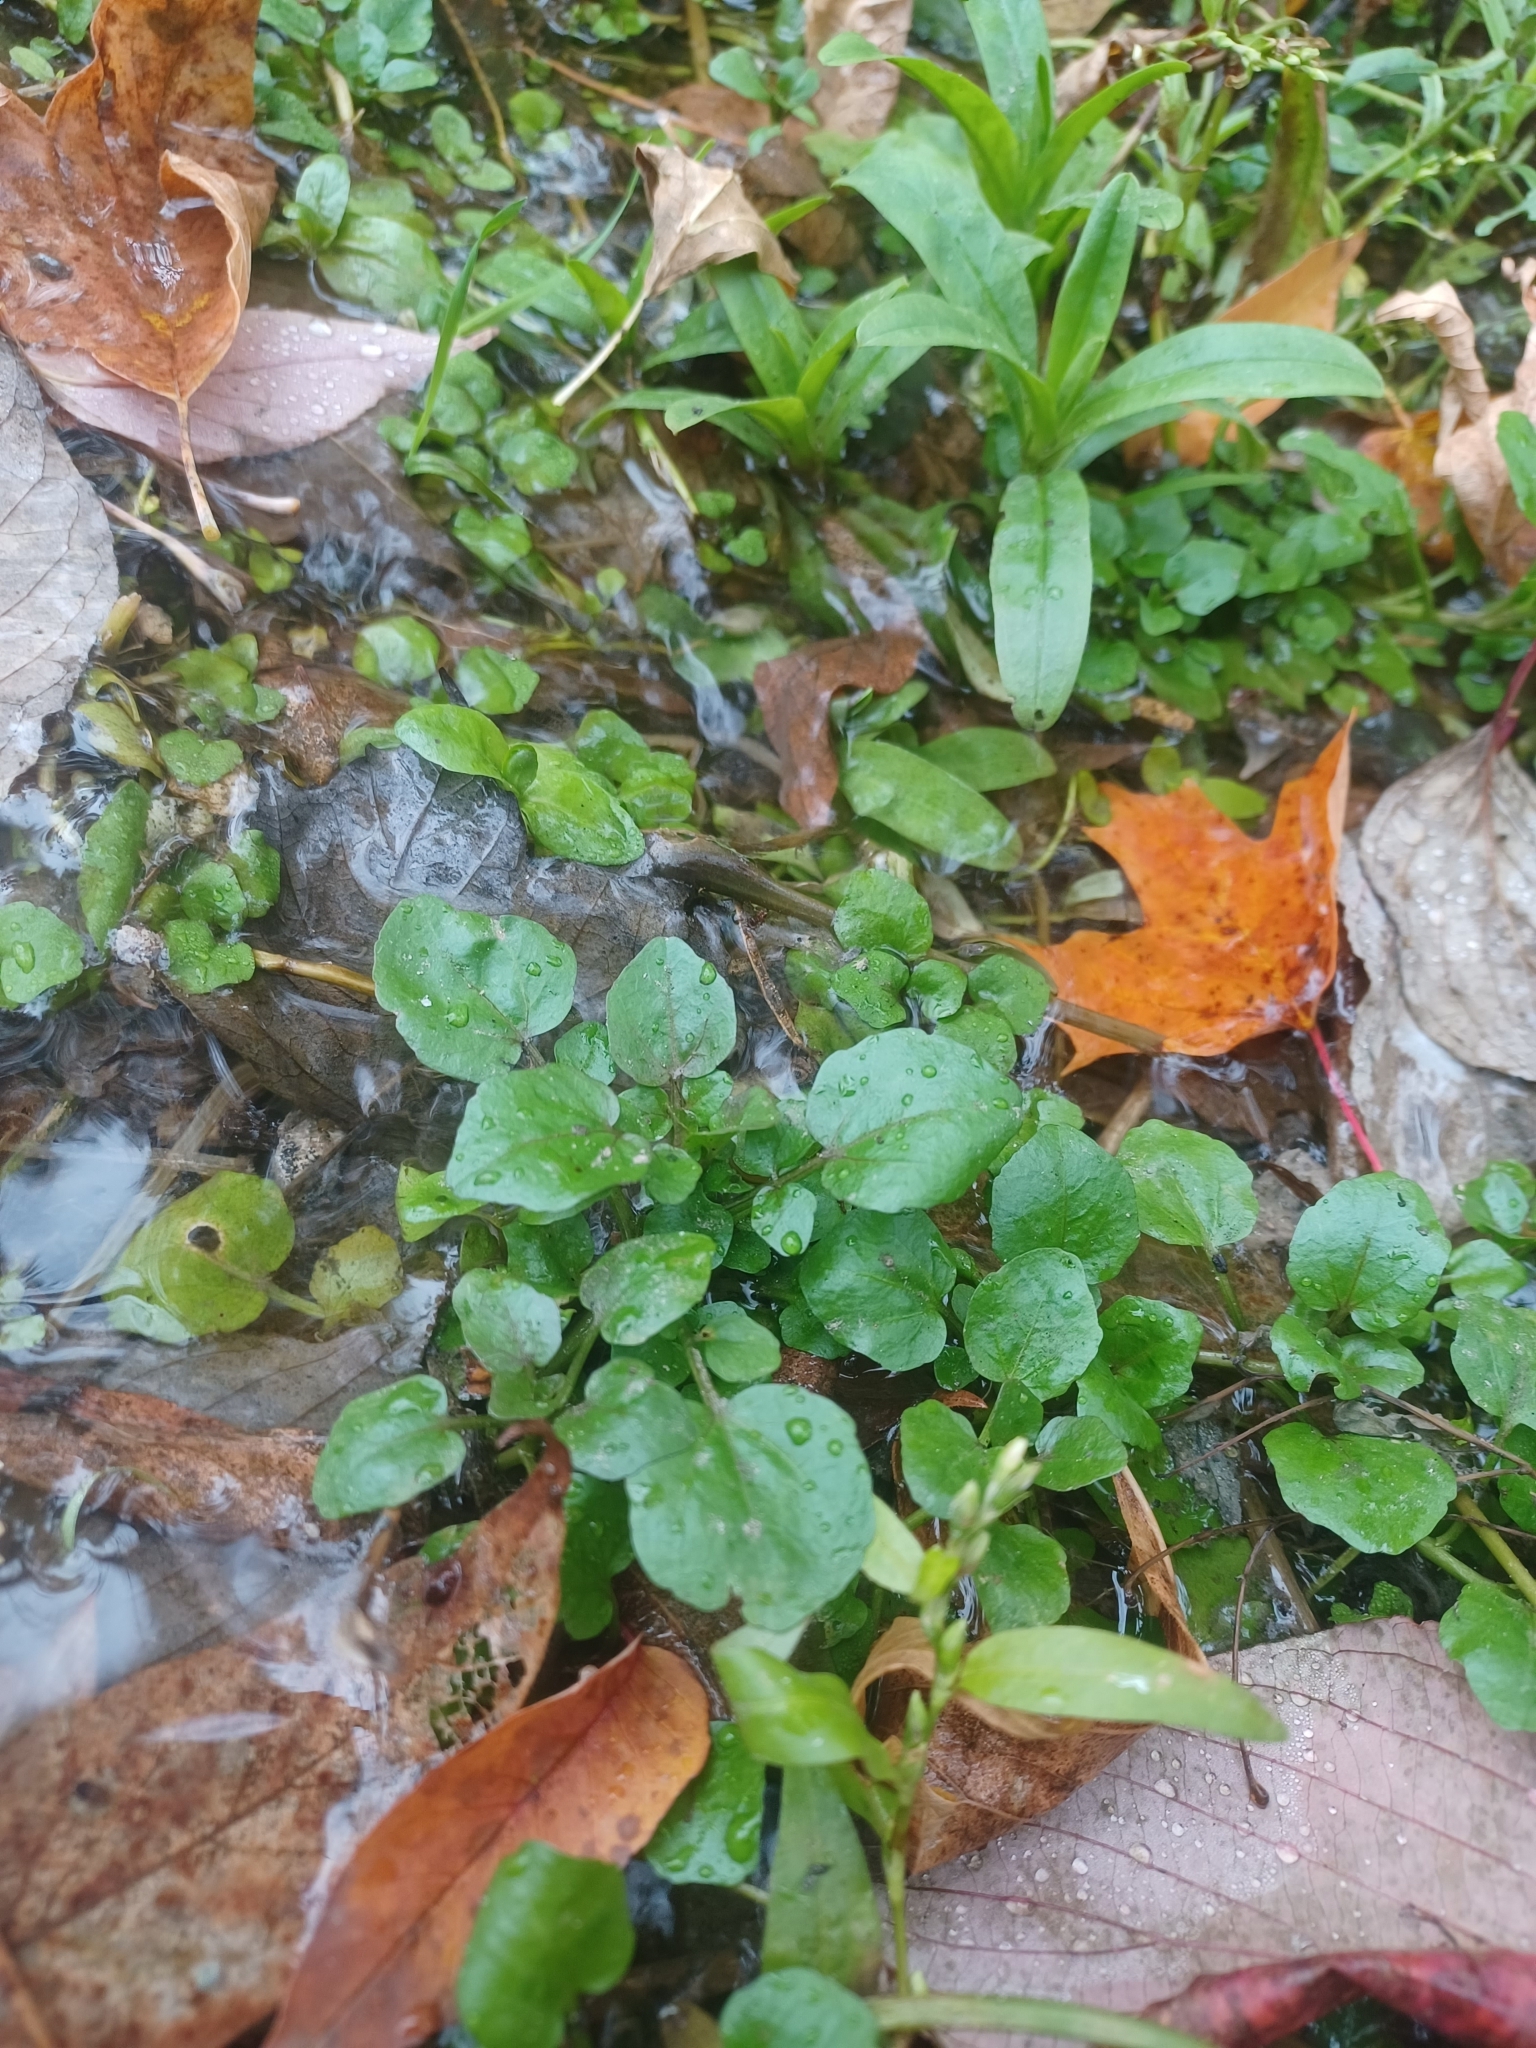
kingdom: Plantae
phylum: Tracheophyta
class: Magnoliopsida
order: Brassicales
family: Brassicaceae
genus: Nasturtium
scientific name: Nasturtium officinale
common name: Watercress
